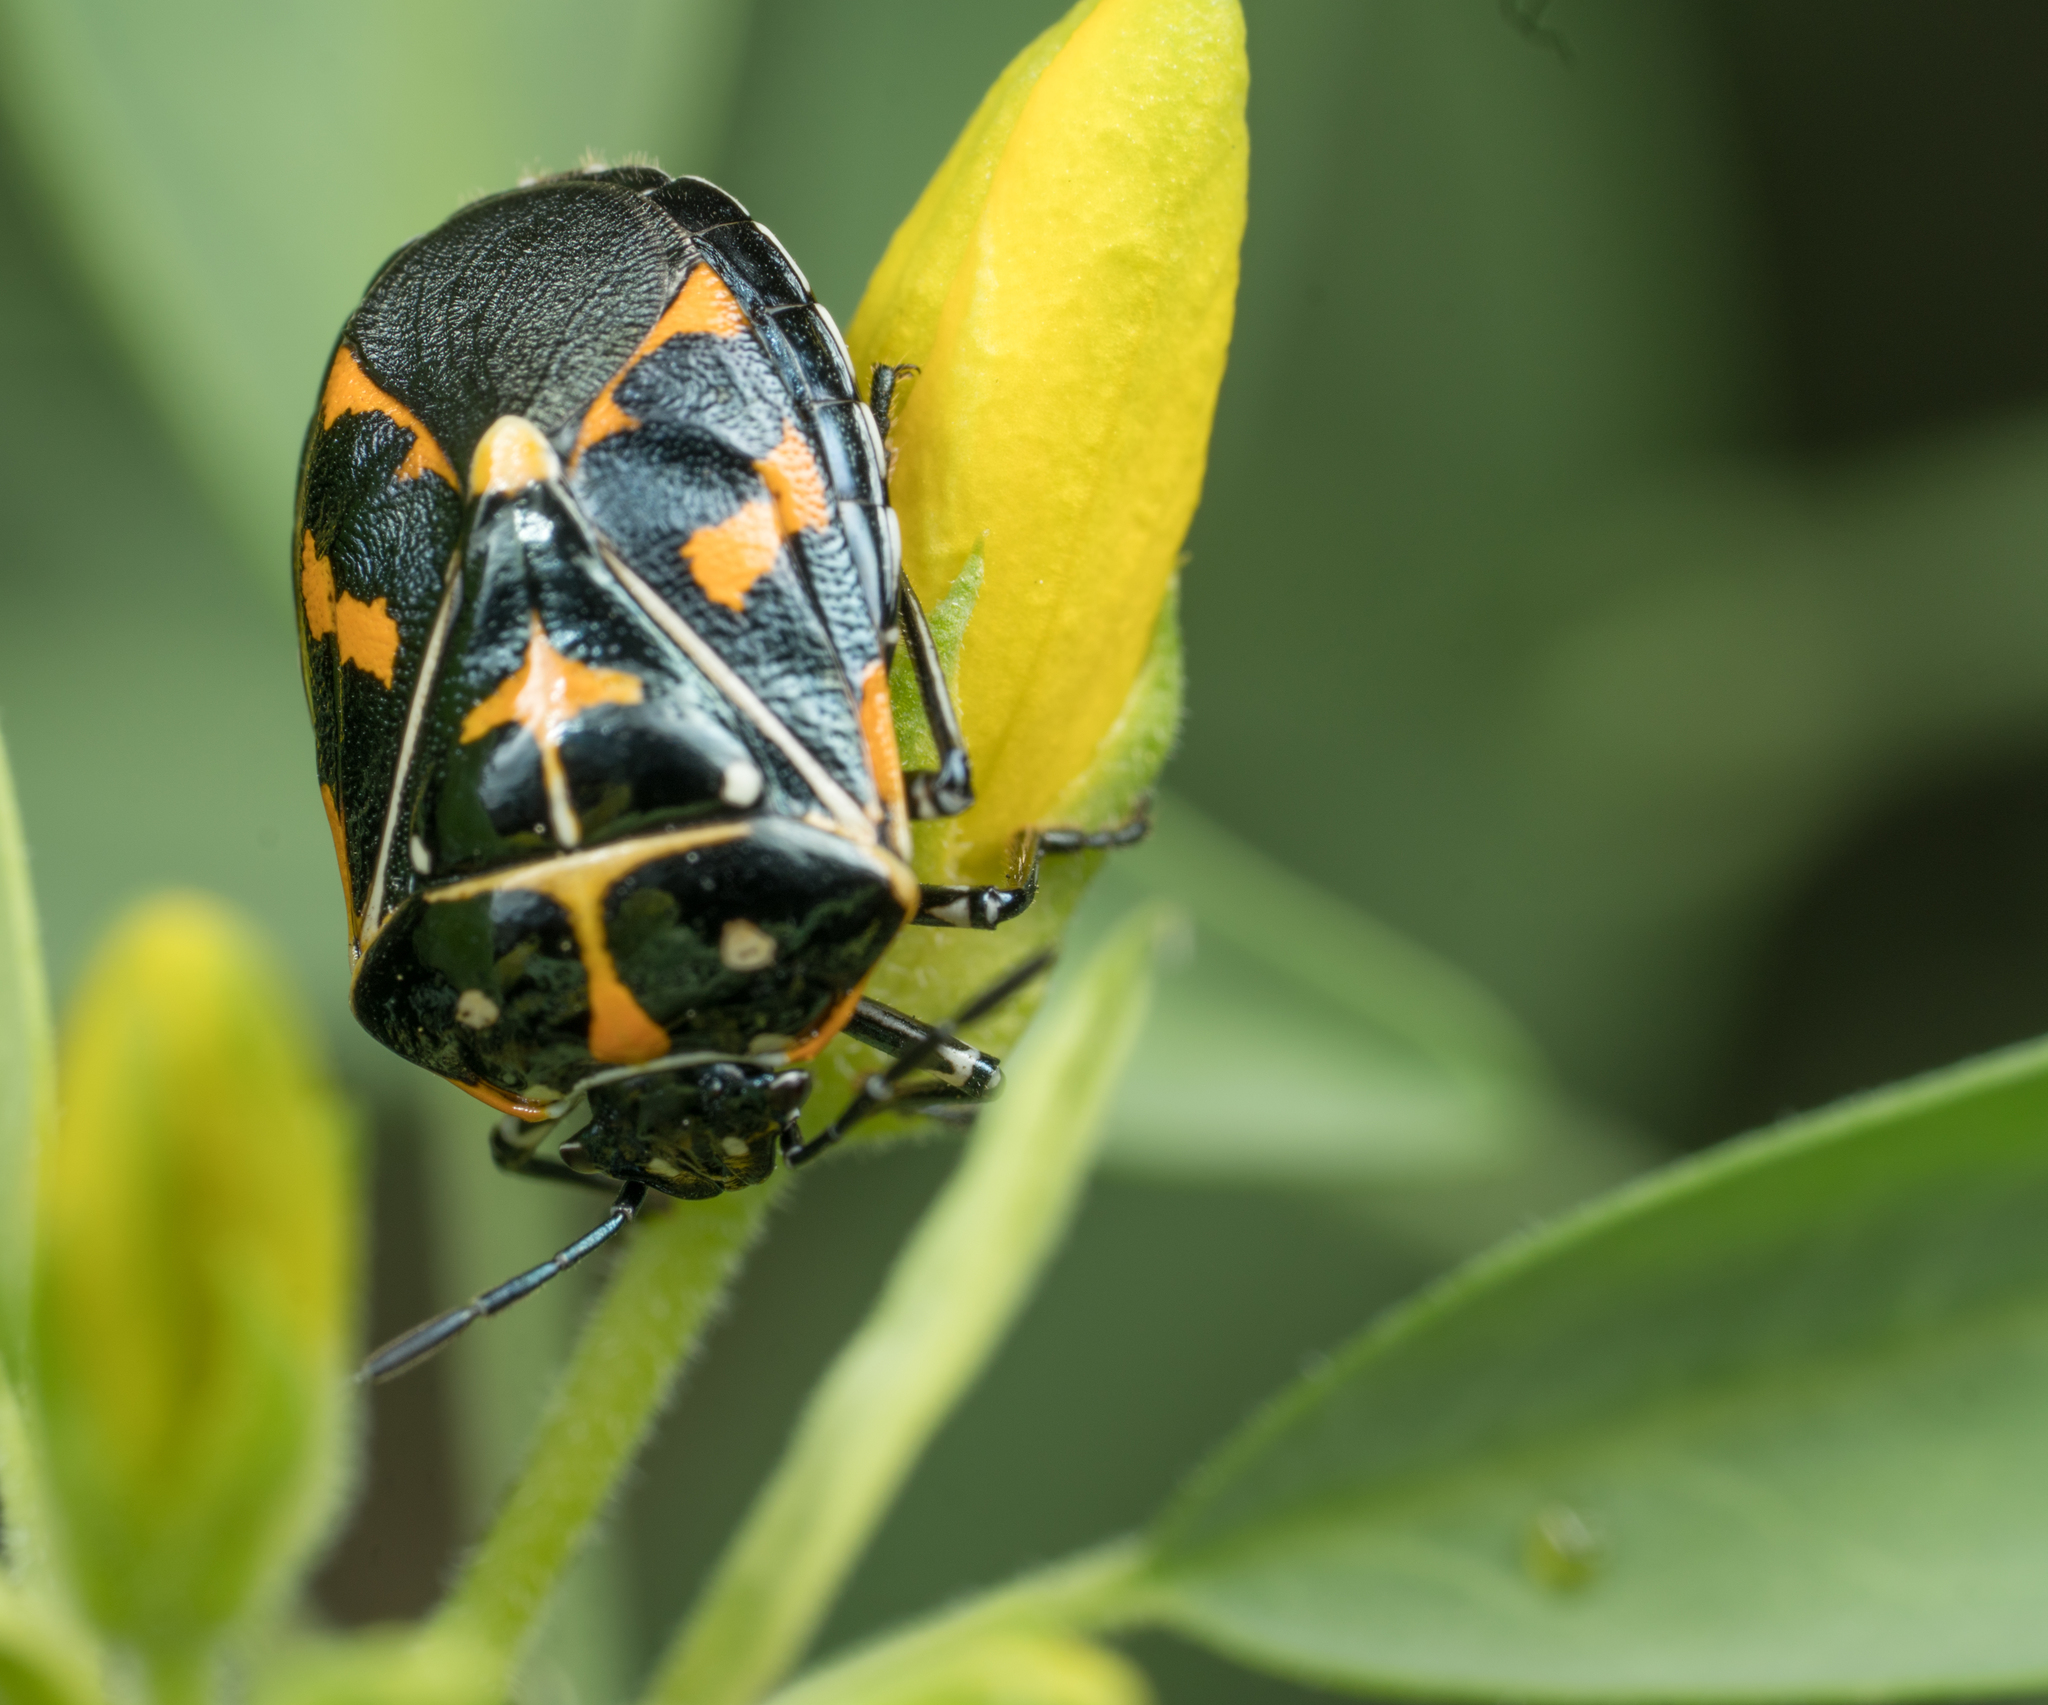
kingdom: Animalia
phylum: Arthropoda
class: Insecta
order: Hemiptera
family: Pentatomidae
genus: Murgantia
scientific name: Murgantia histrionica
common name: Harlequin bug
